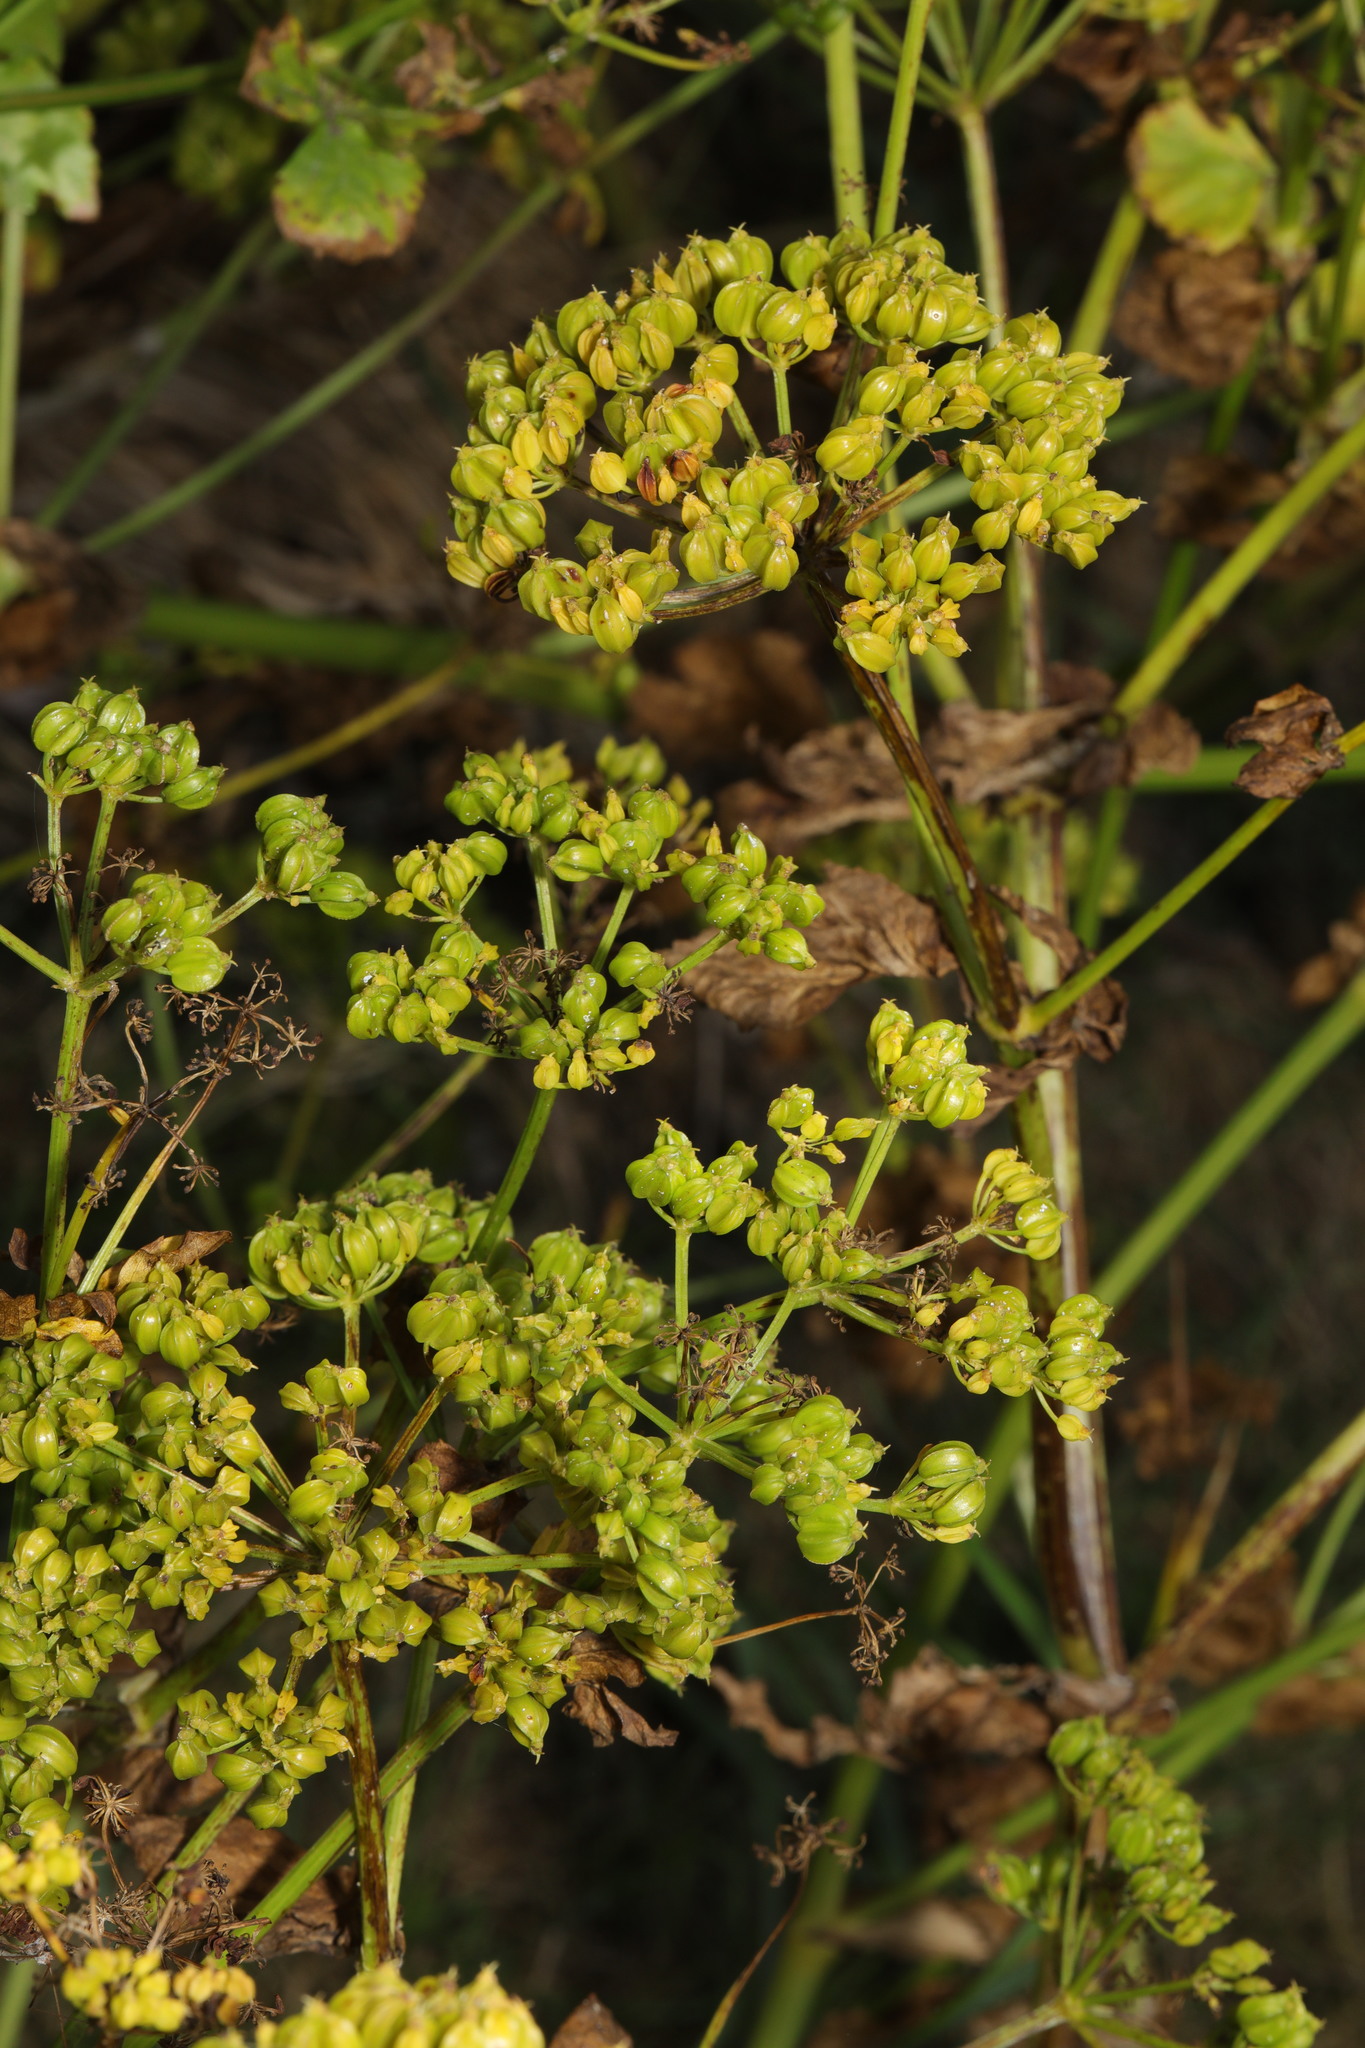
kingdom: Plantae
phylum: Tracheophyta
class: Magnoliopsida
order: Apiales
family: Apiaceae
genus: Smyrnium
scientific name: Smyrnium olusatrum
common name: Alexanders
